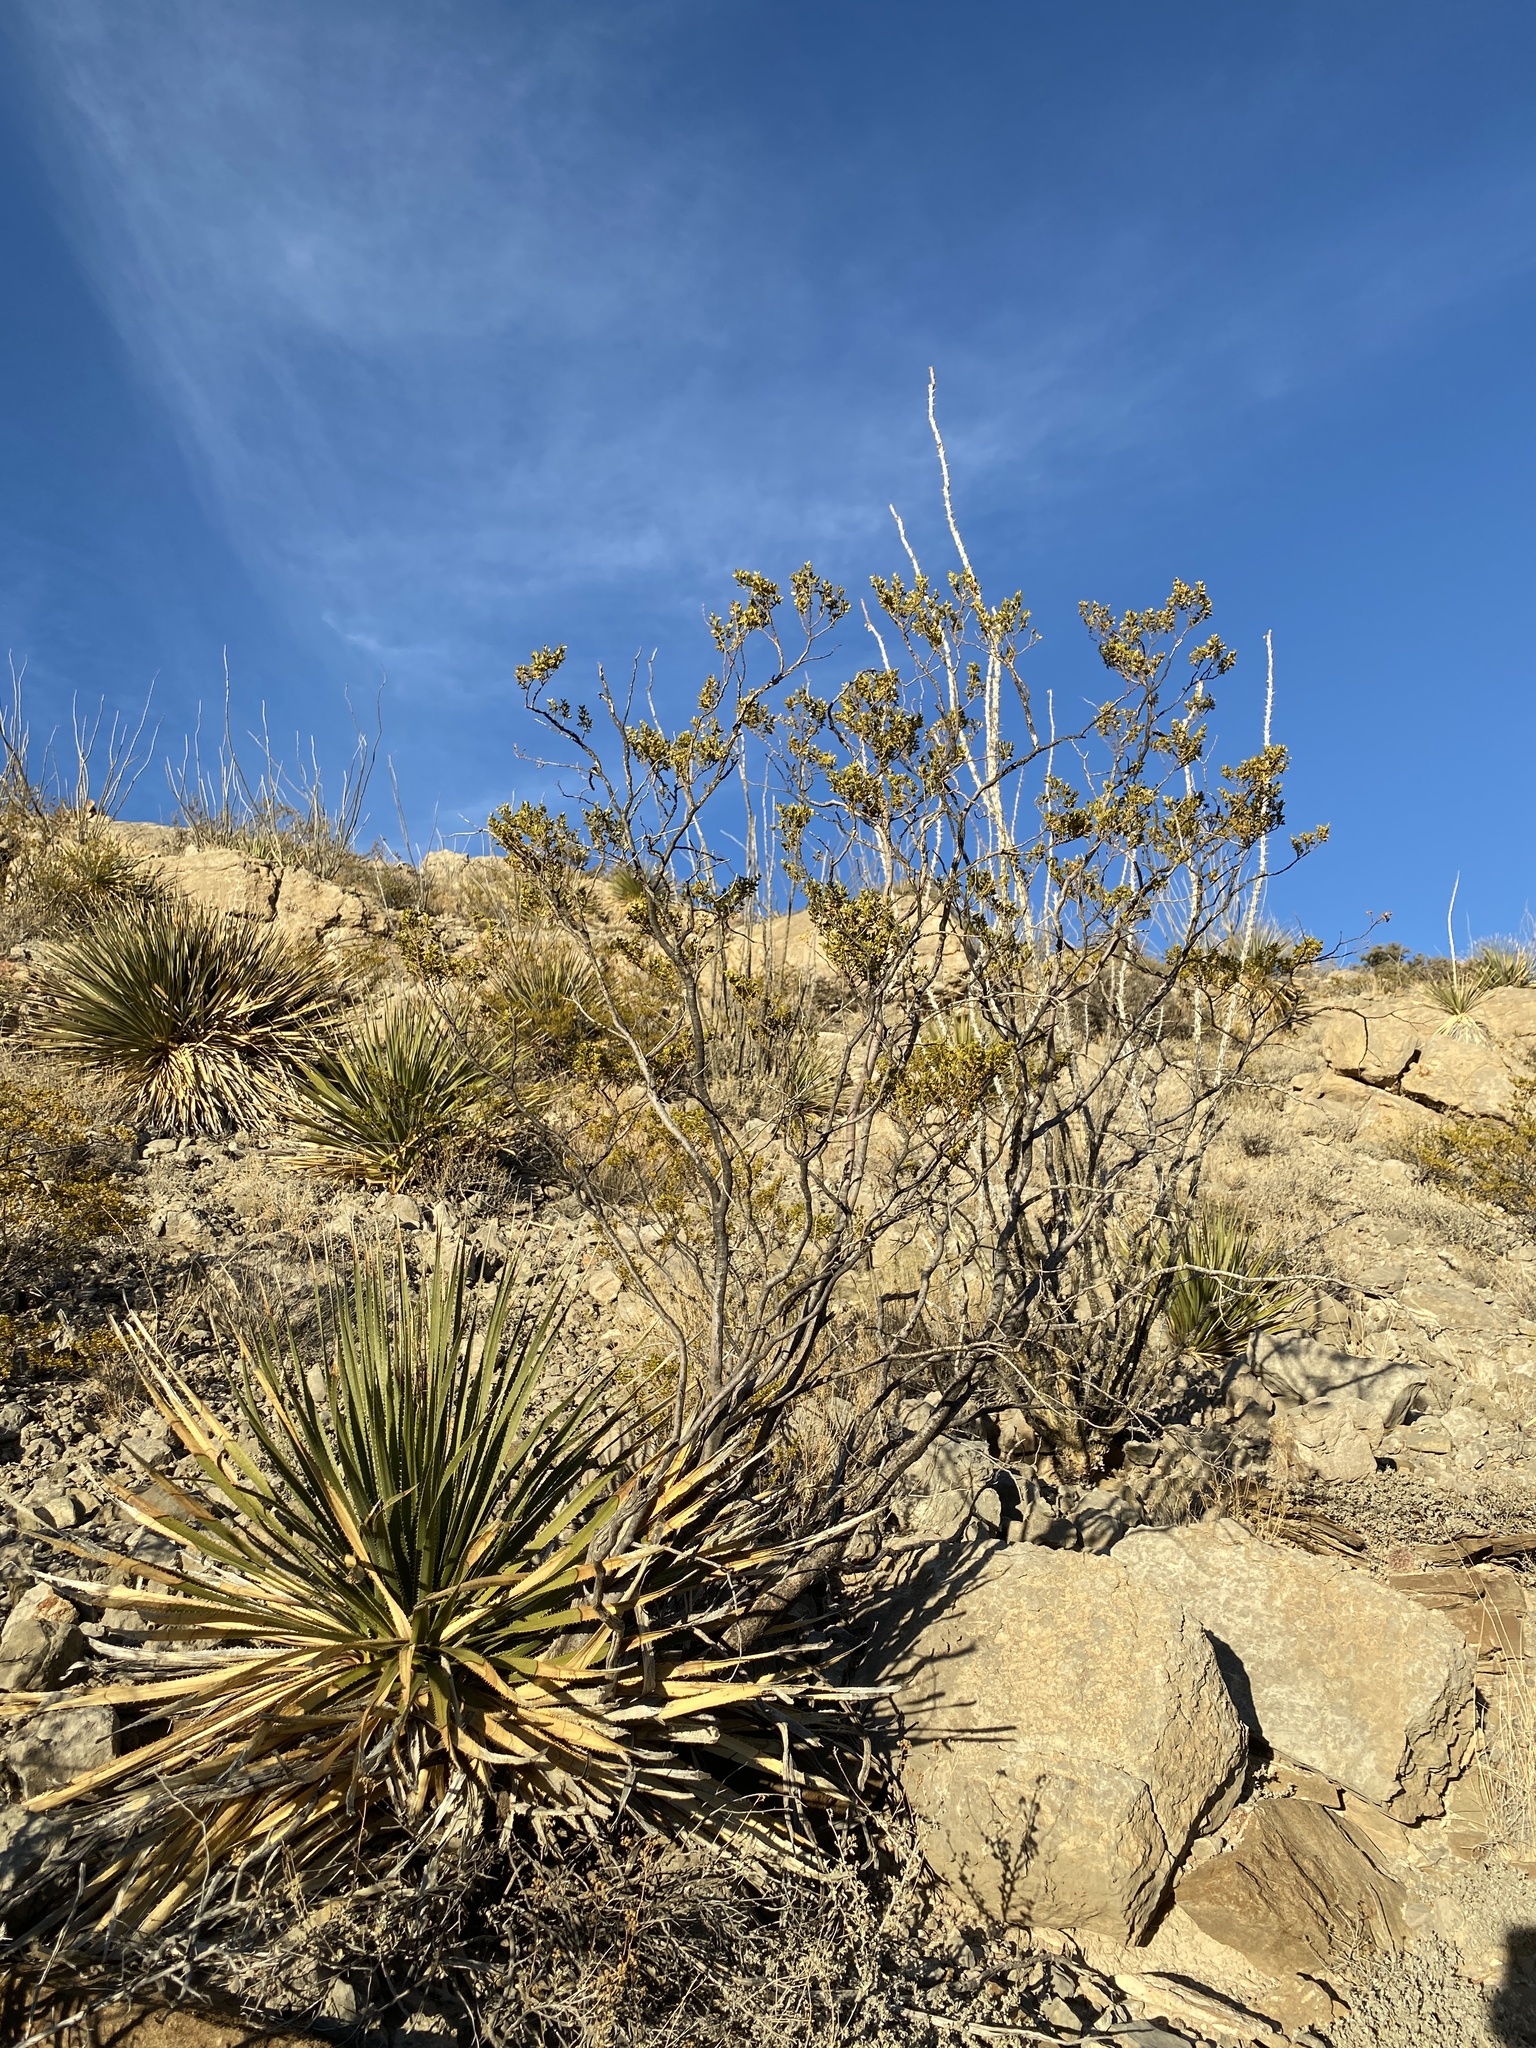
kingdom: Plantae
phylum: Tracheophyta
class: Magnoliopsida
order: Zygophyllales
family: Zygophyllaceae
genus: Larrea
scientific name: Larrea tridentata
